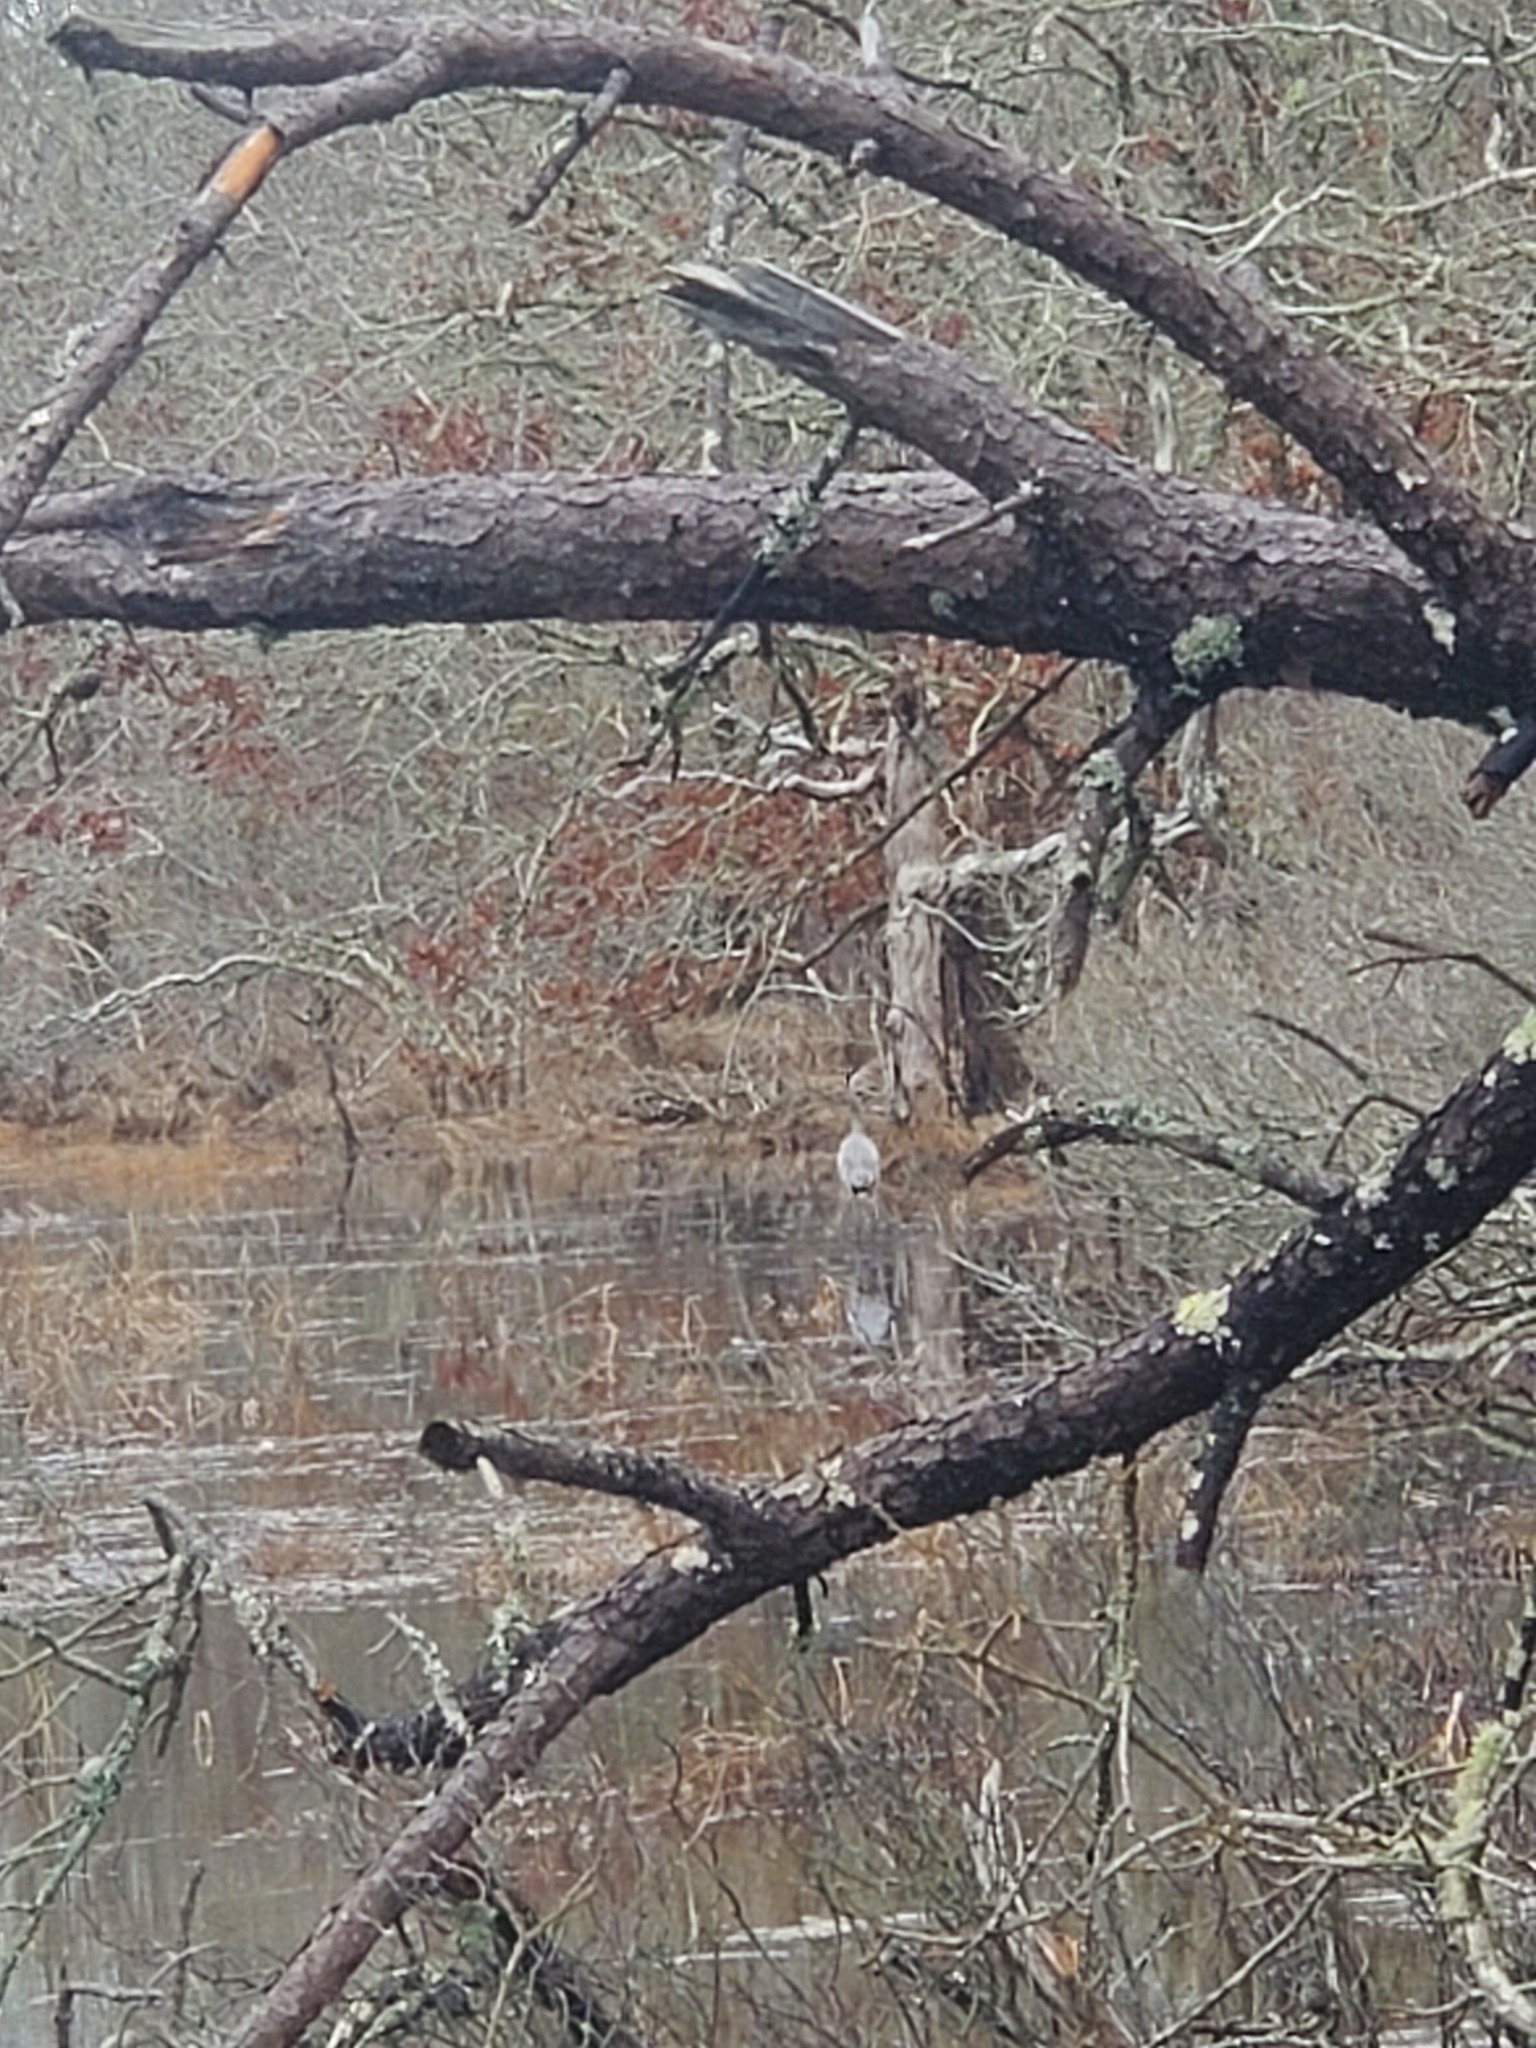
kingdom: Animalia
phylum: Chordata
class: Aves
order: Pelecaniformes
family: Ardeidae
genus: Ardea
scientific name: Ardea herodias
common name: Great blue heron
